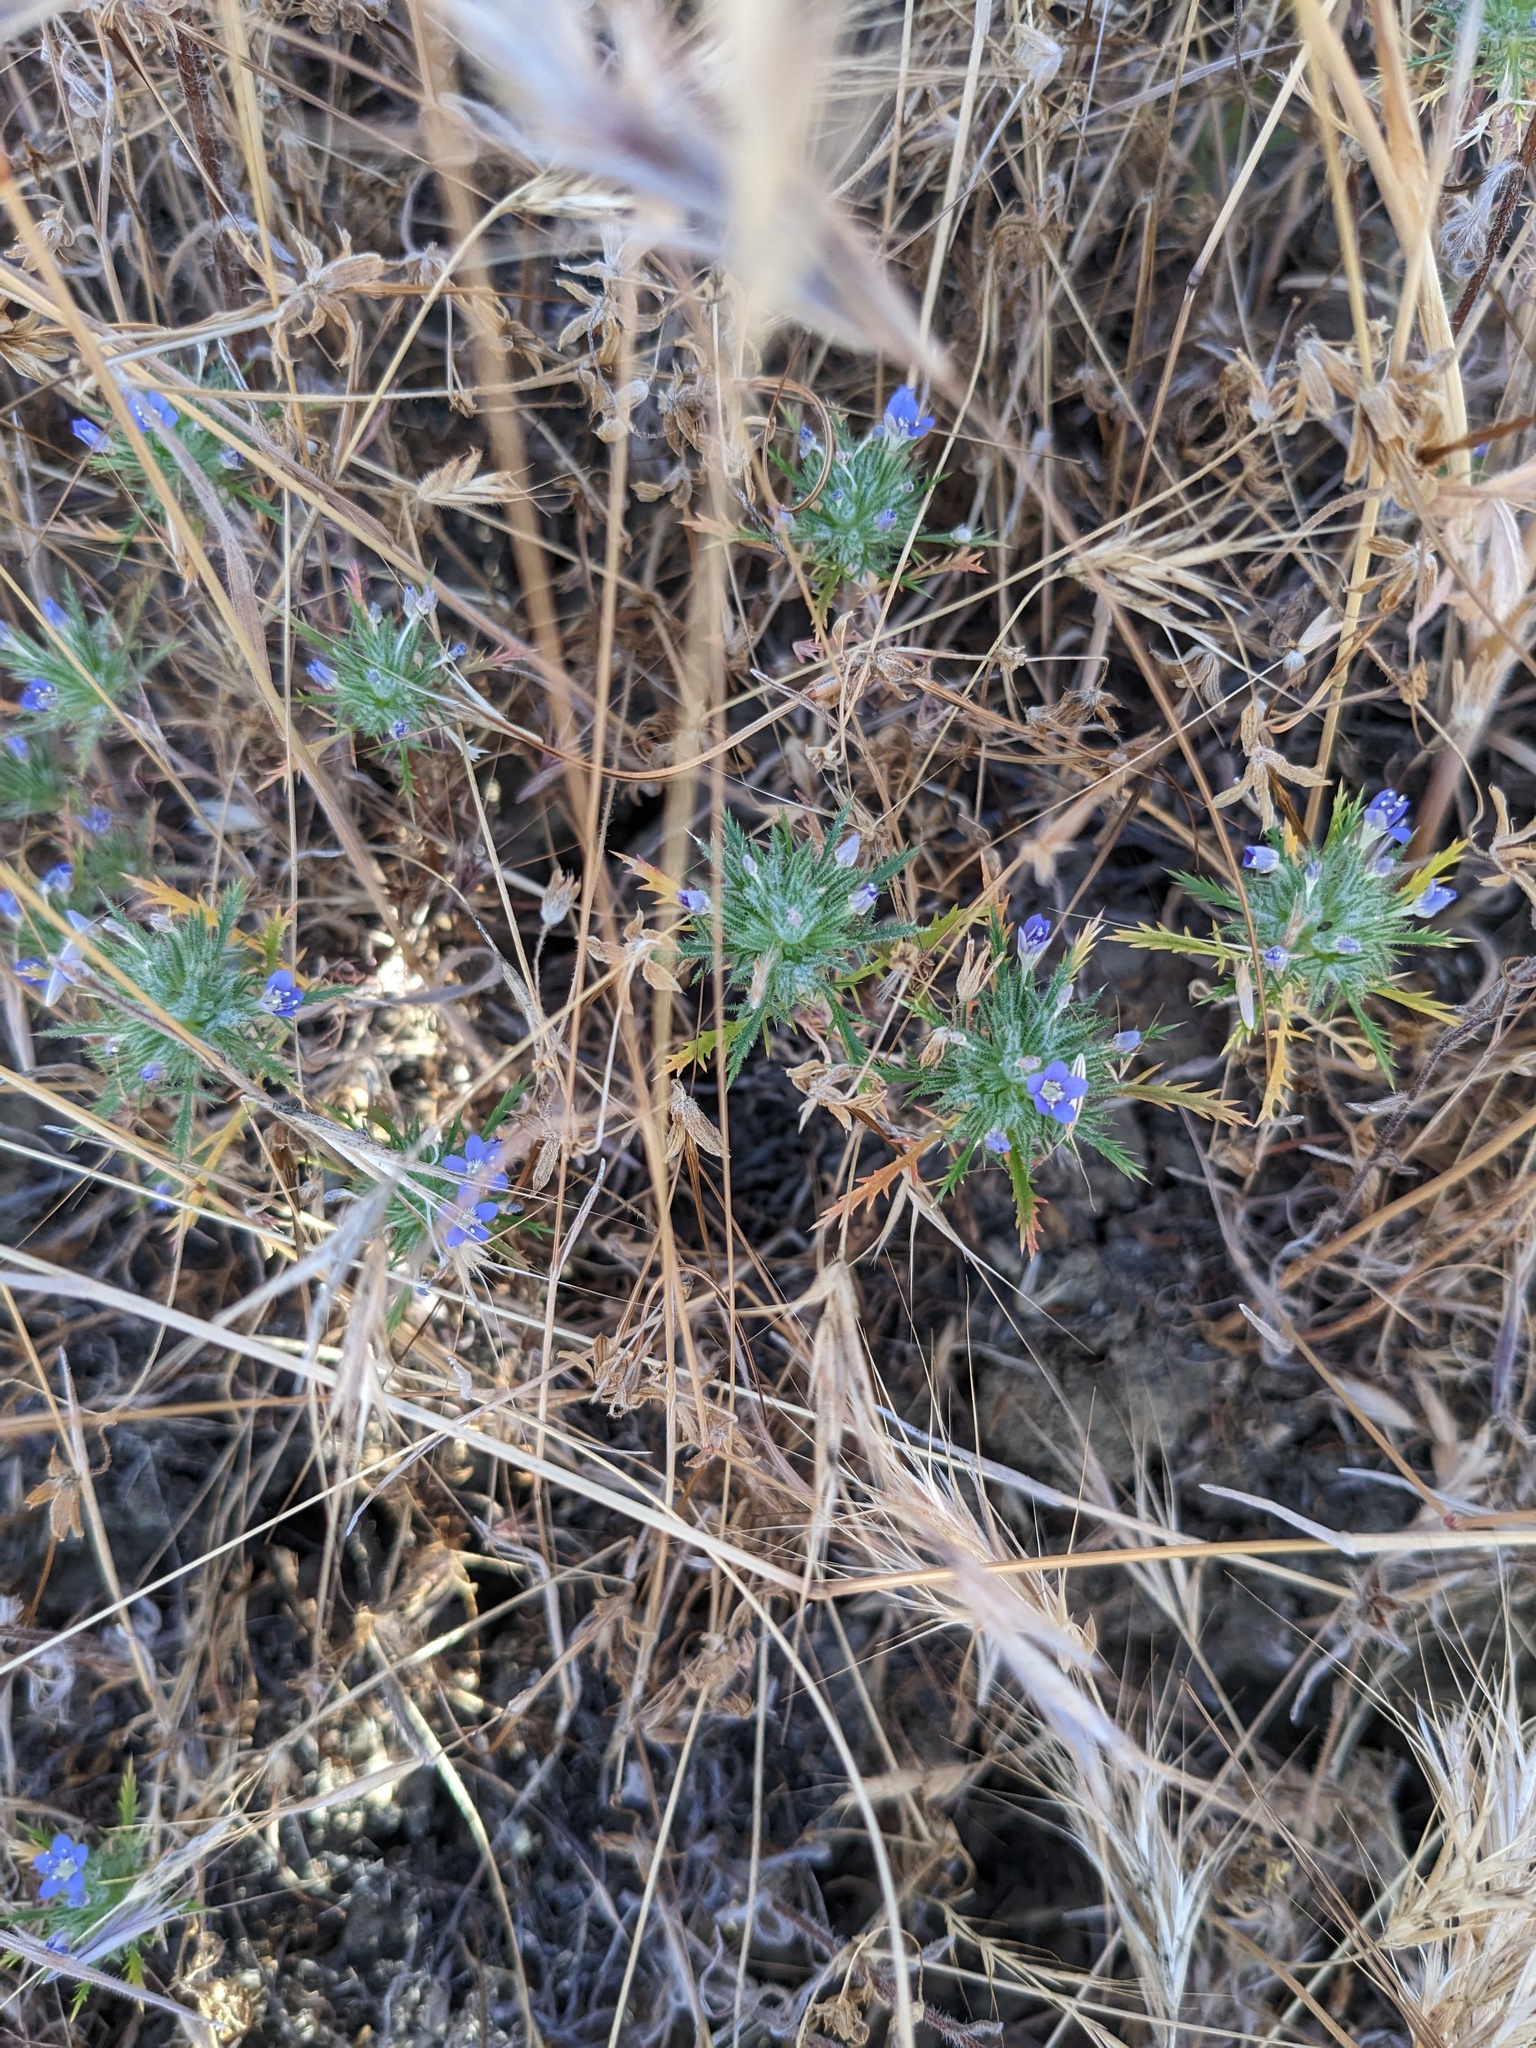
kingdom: Plantae
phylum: Tracheophyta
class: Magnoliopsida
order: Ericales
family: Polemoniaceae
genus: Navarretia
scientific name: Navarretia pubescens
